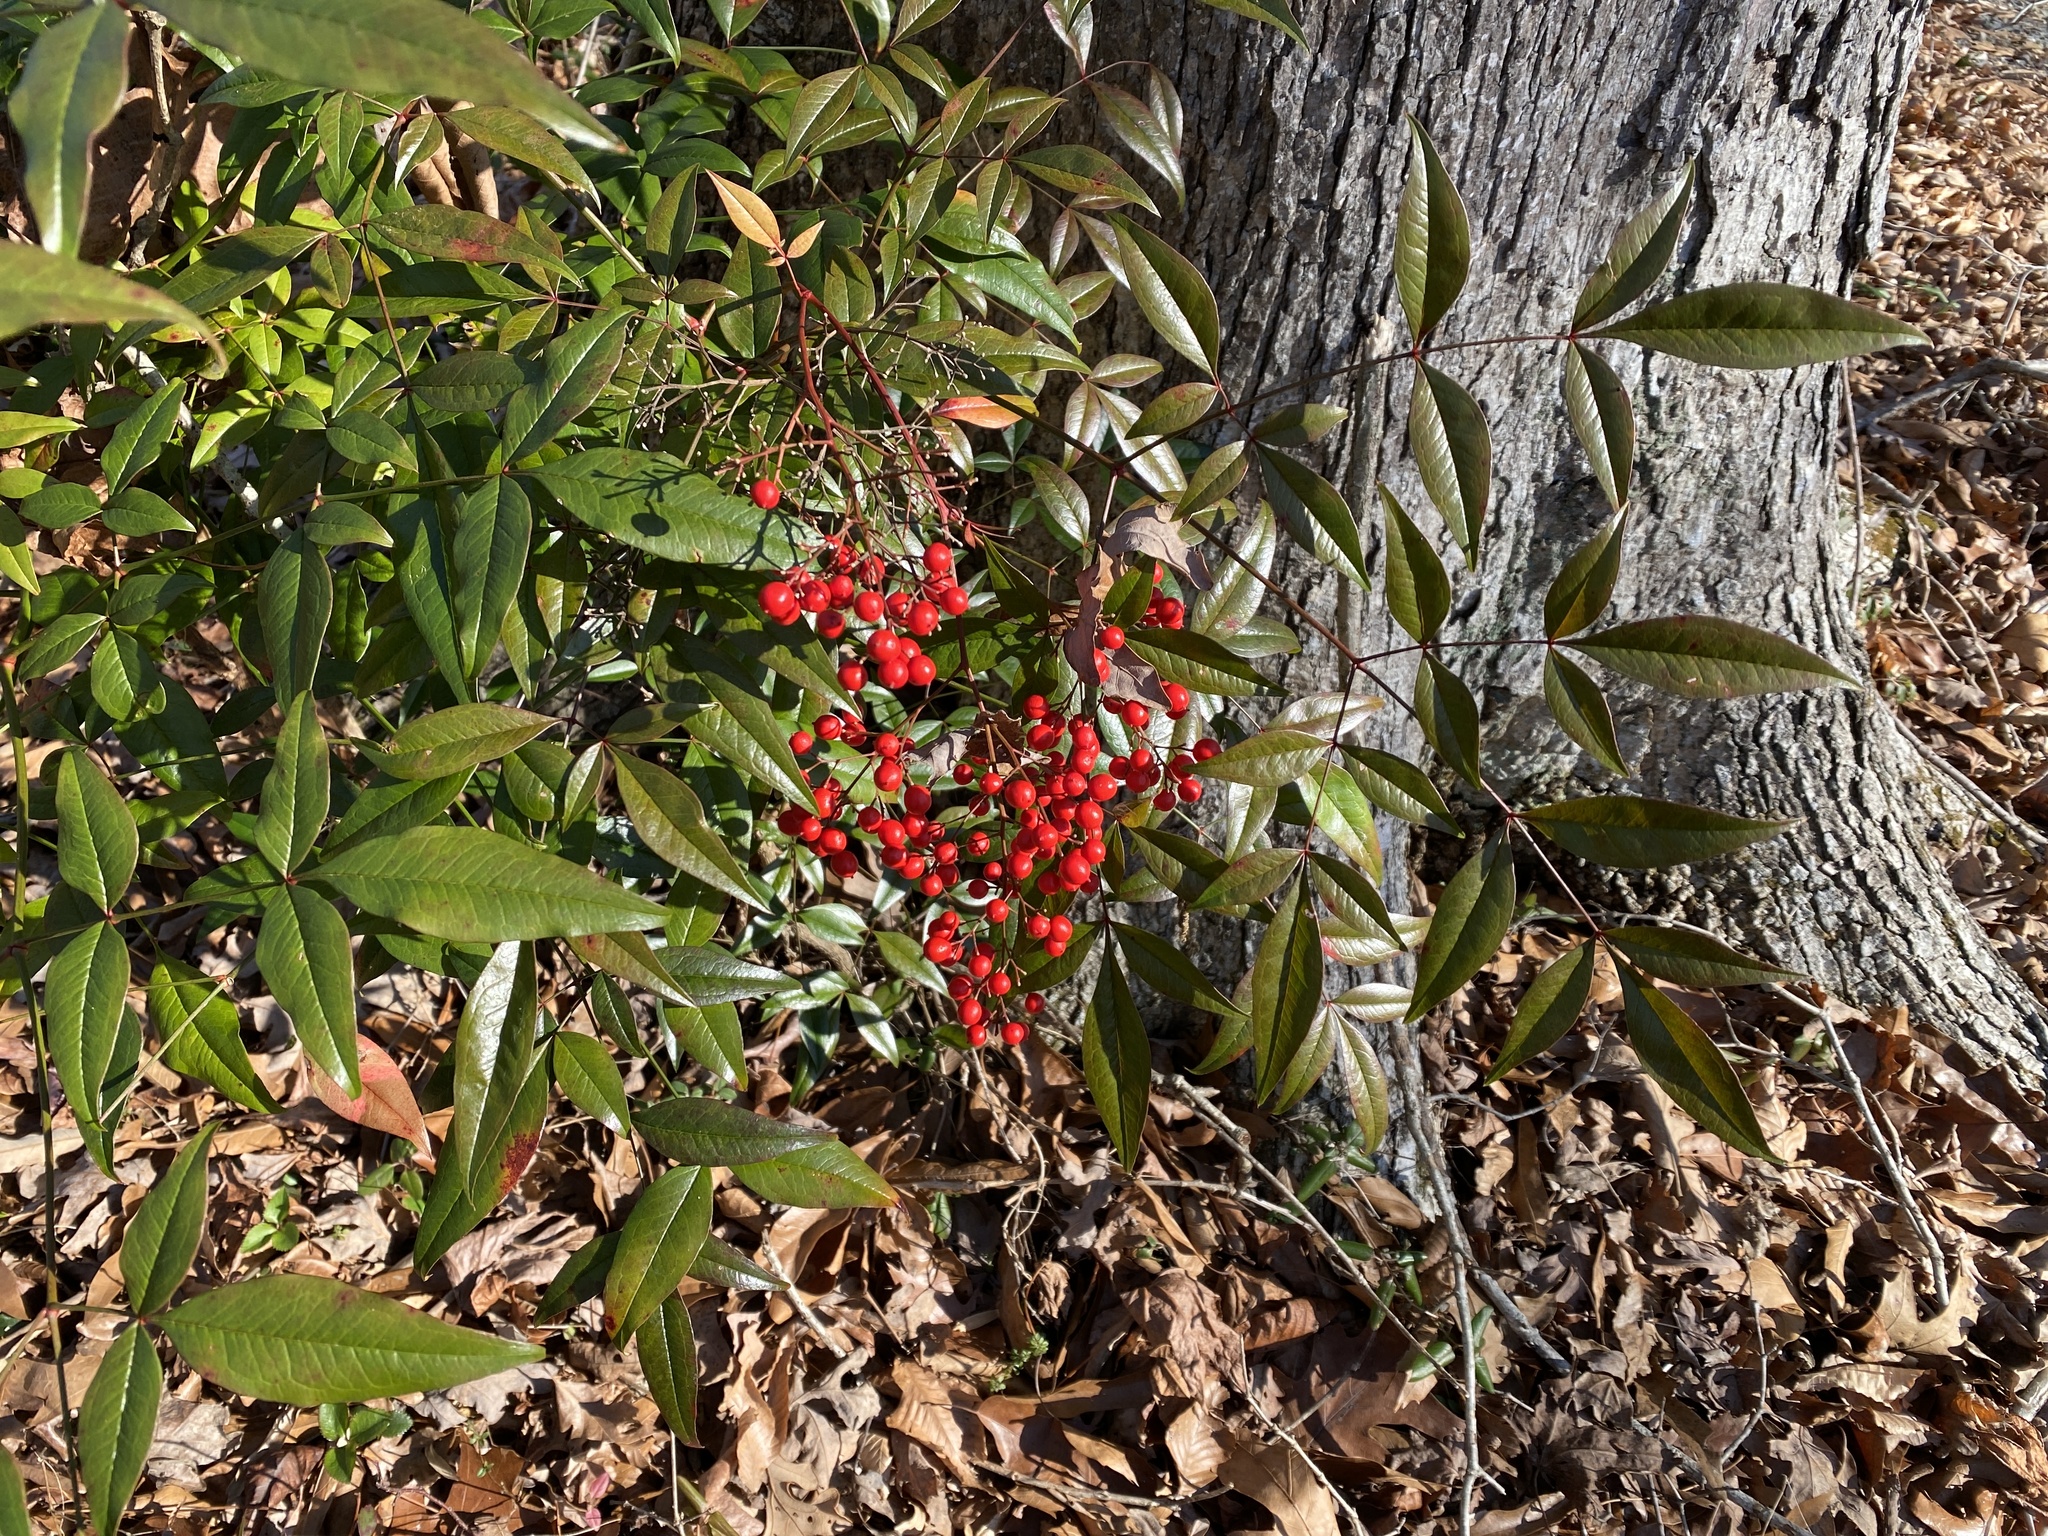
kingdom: Plantae
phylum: Tracheophyta
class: Magnoliopsida
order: Ranunculales
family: Berberidaceae
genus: Nandina
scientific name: Nandina domestica
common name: Sacred bamboo
